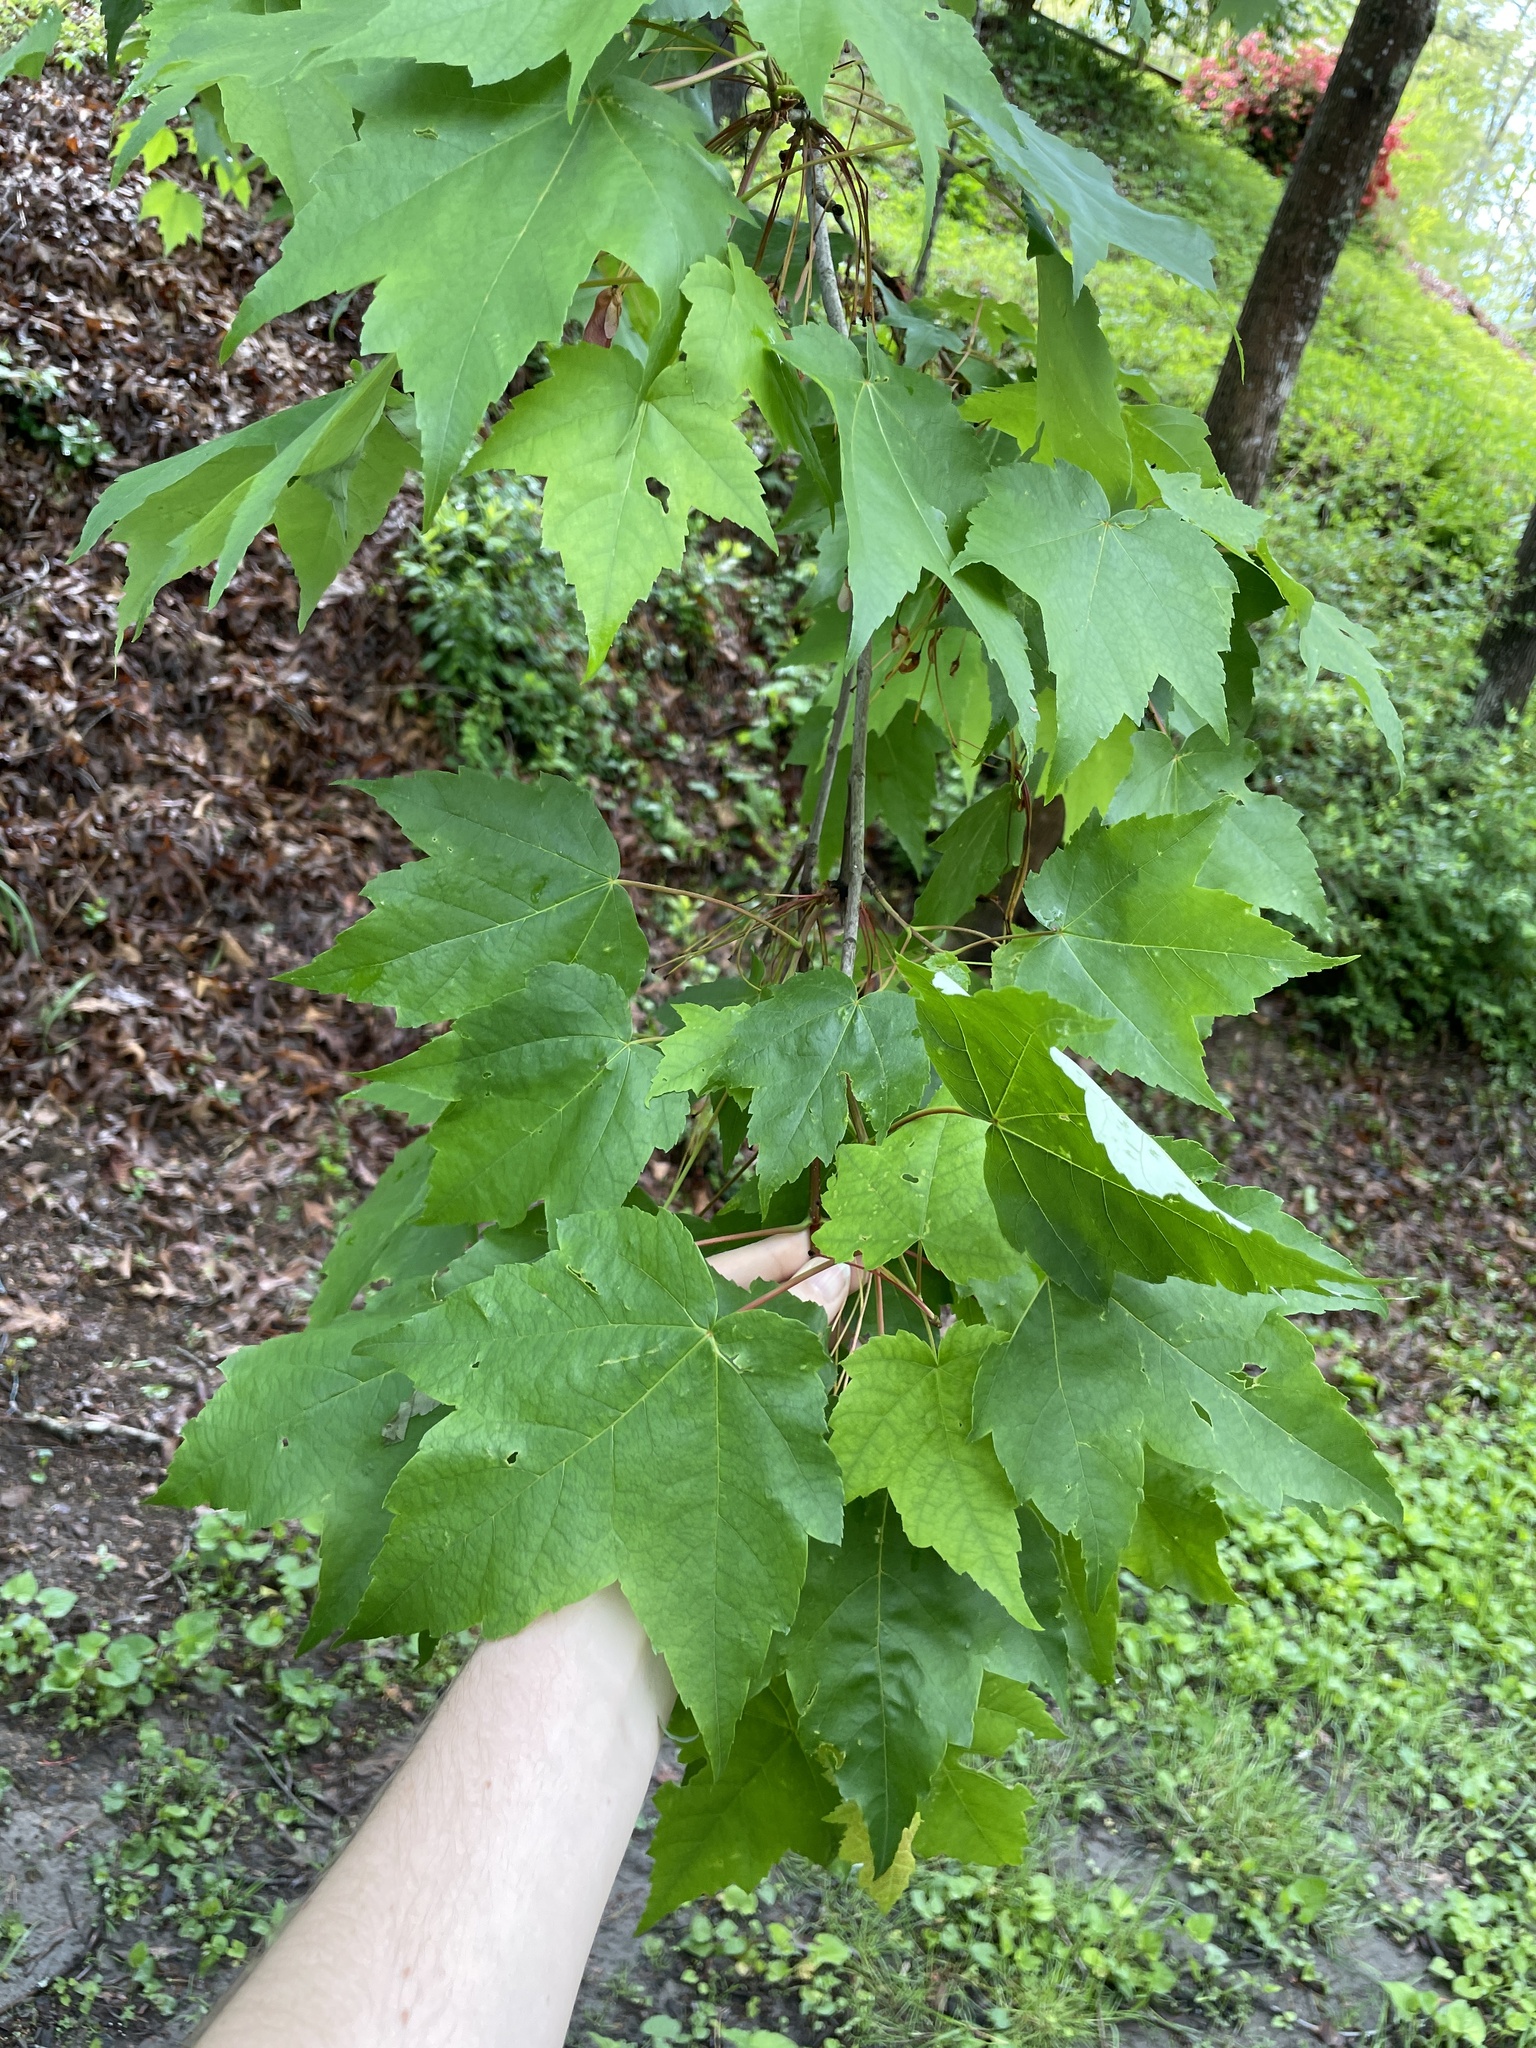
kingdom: Plantae
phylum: Tracheophyta
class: Magnoliopsida
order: Sapindales
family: Sapindaceae
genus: Acer
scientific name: Acer rubrum
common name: Red maple
